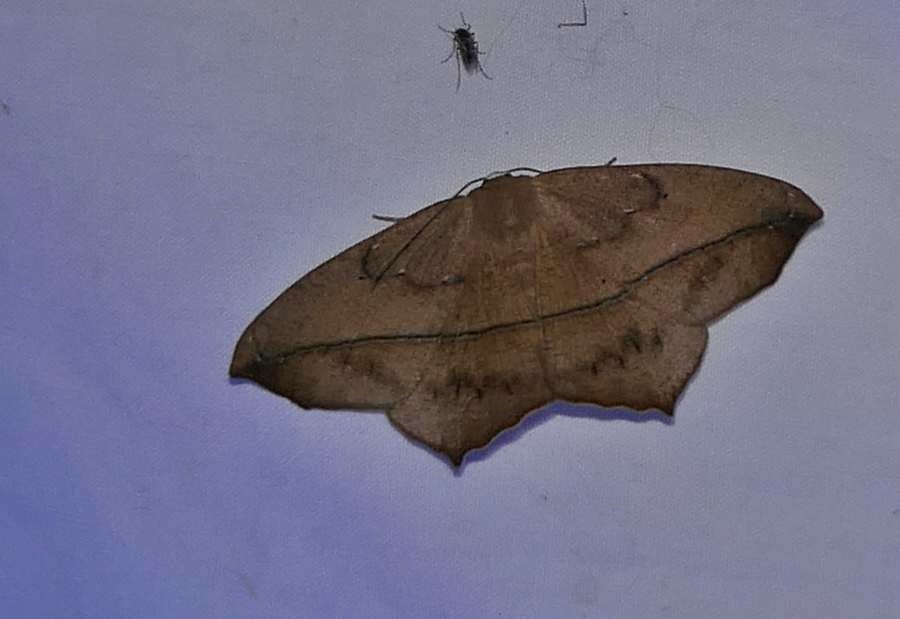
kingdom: Animalia
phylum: Arthropoda
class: Insecta
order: Lepidoptera
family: Geometridae
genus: Prochoerodes
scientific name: Prochoerodes lineola
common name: Large maple spanworm
